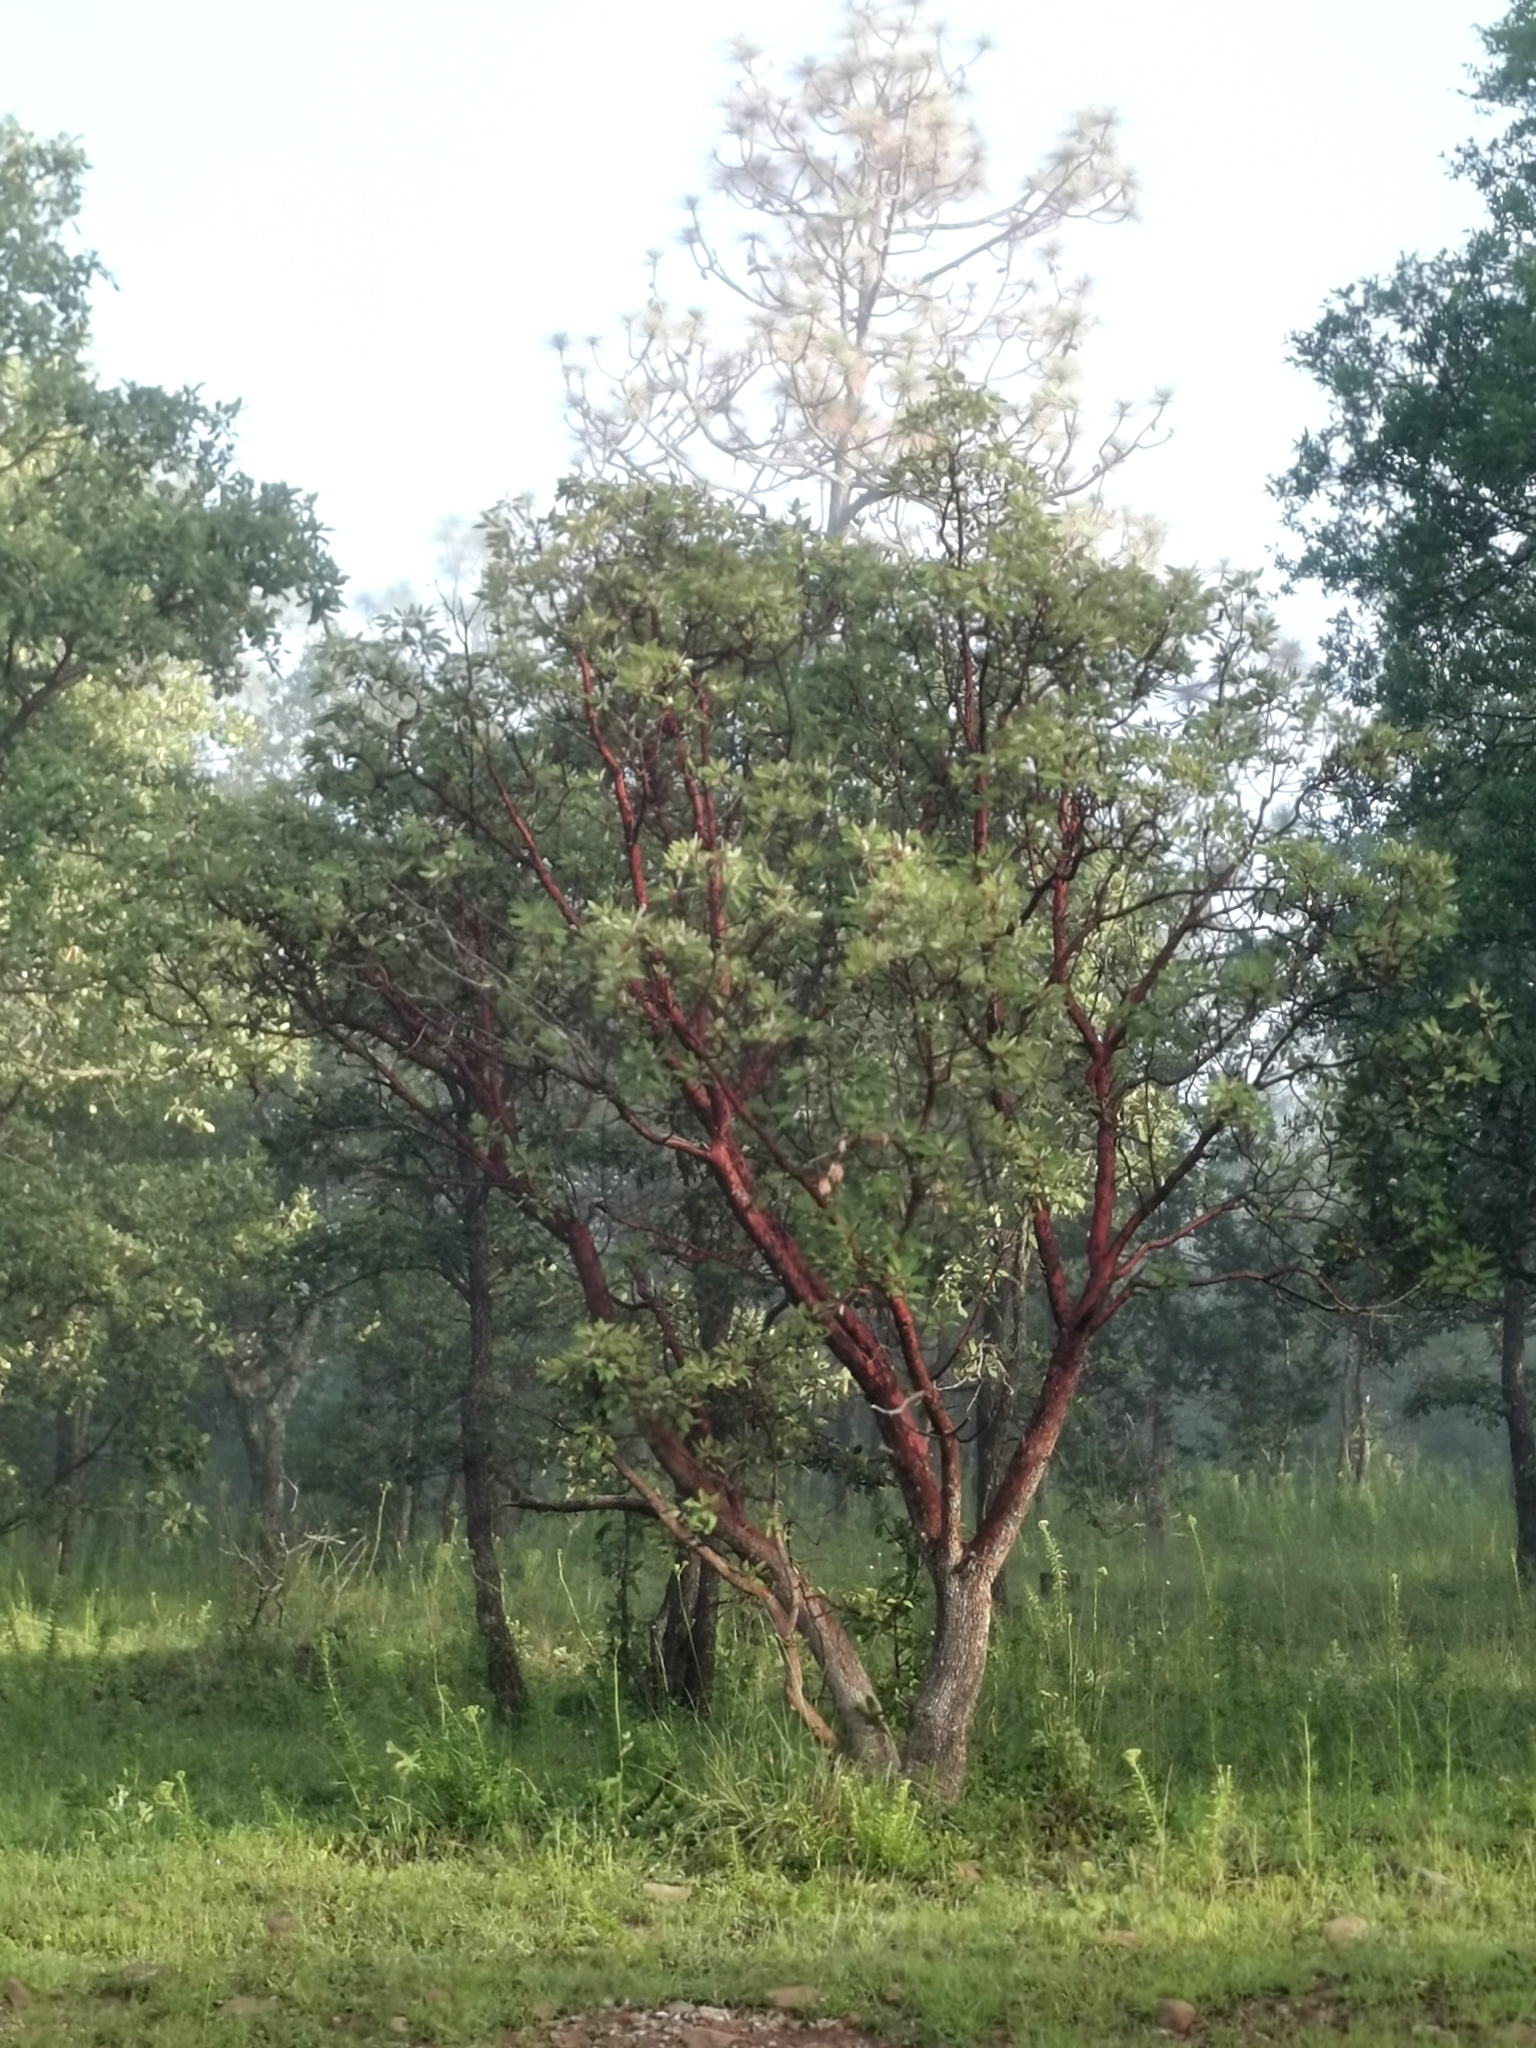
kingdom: Plantae
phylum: Tracheophyta
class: Magnoliopsida
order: Ericales
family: Ericaceae
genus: Arbutus
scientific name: Arbutus arizonica
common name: Arizona madrone
